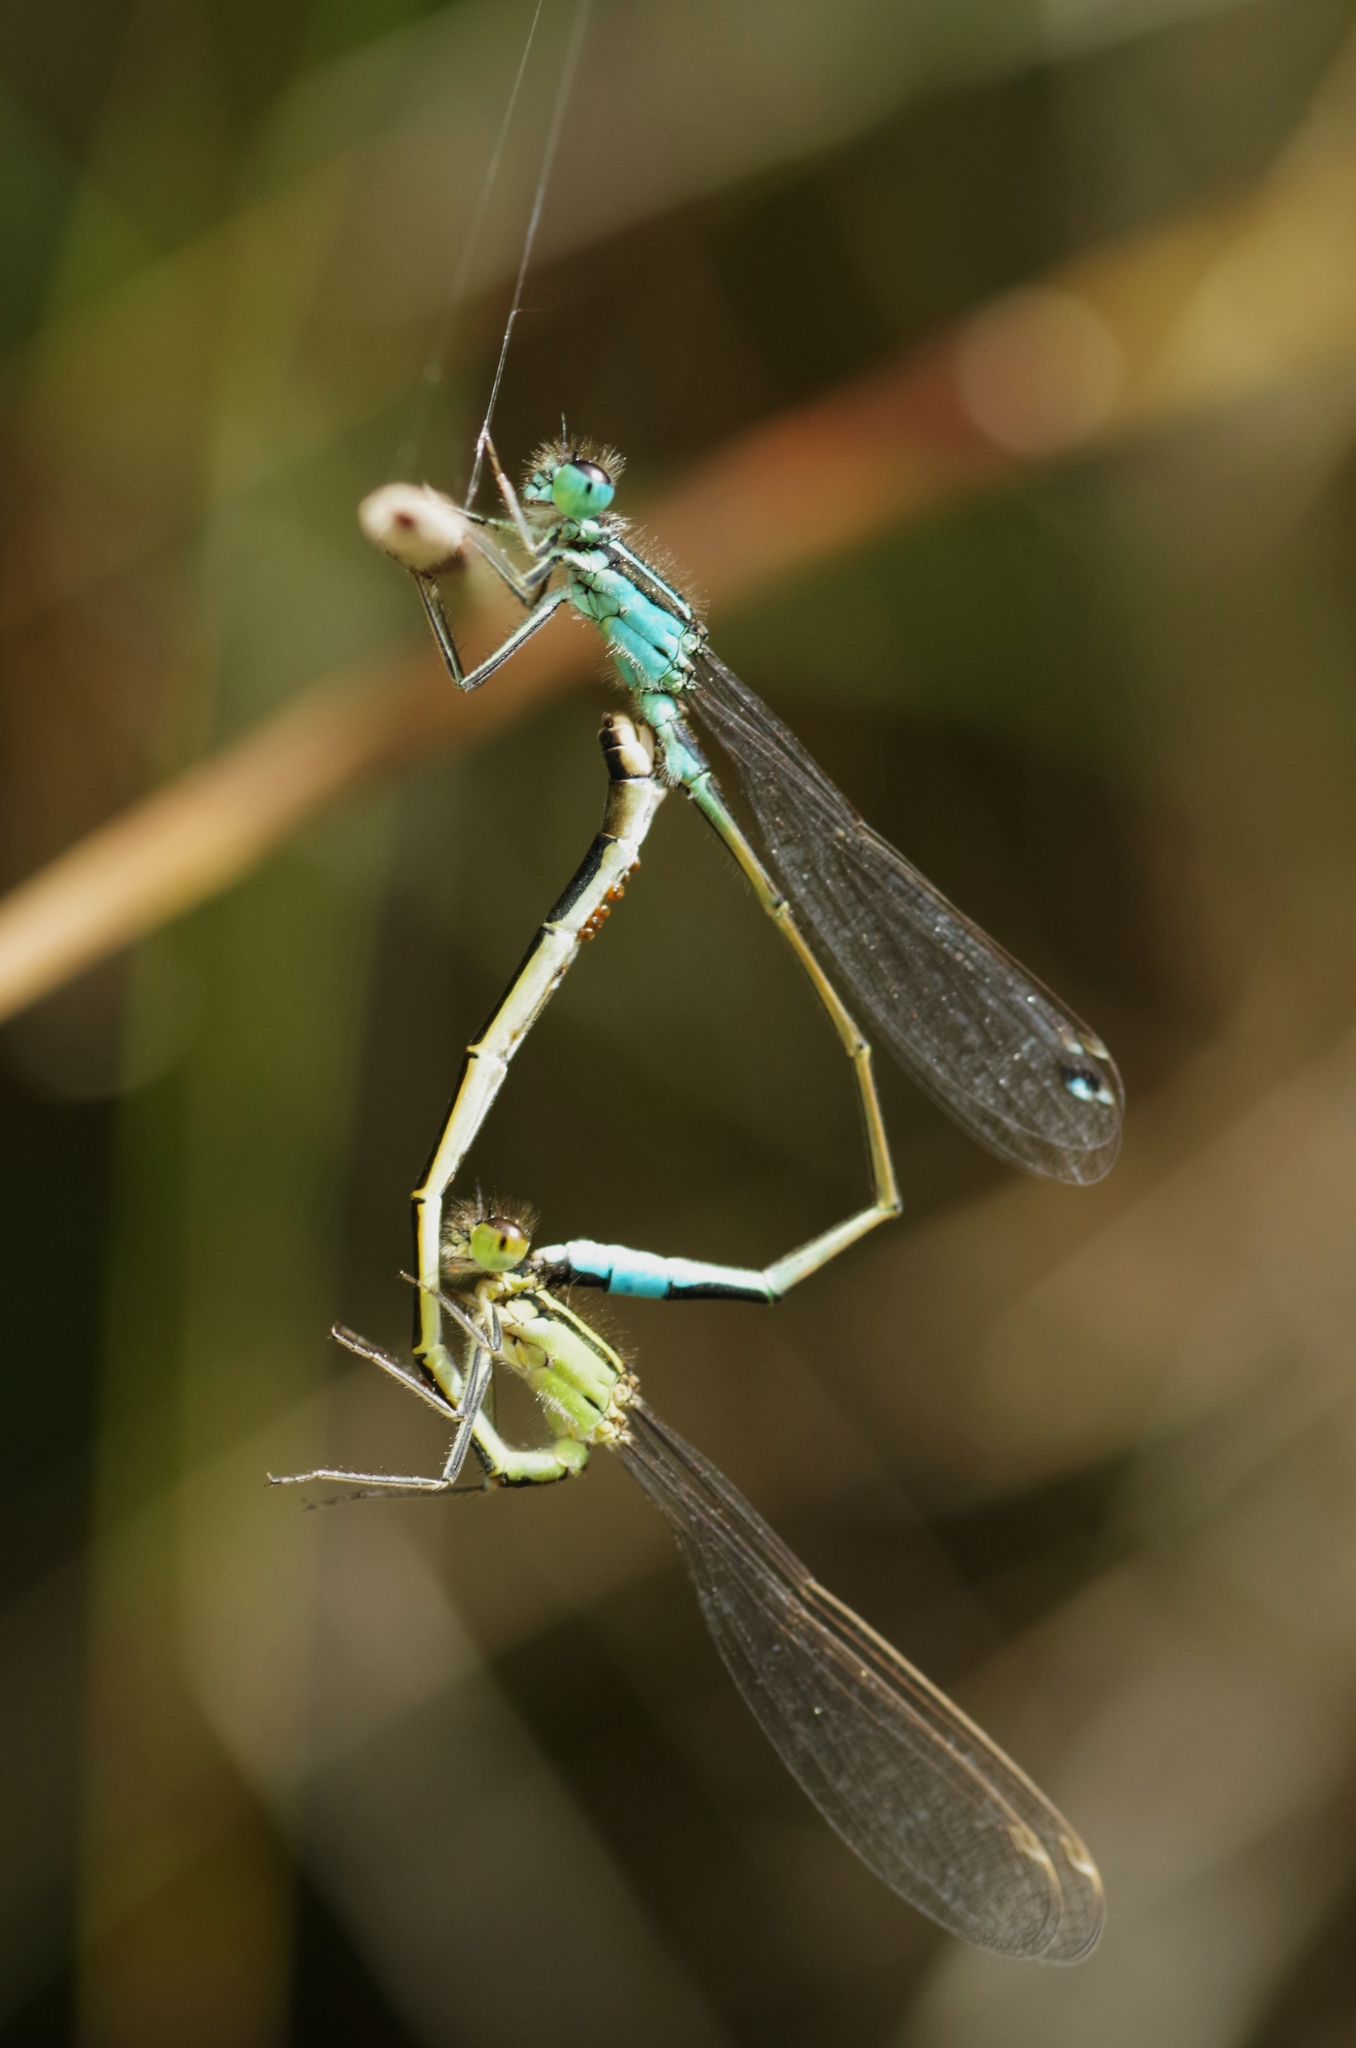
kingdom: Animalia
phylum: Arthropoda
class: Insecta
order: Odonata
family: Coenagrionidae
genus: Ischnura
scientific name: Ischnura elegans
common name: Blue-tailed damselfly
